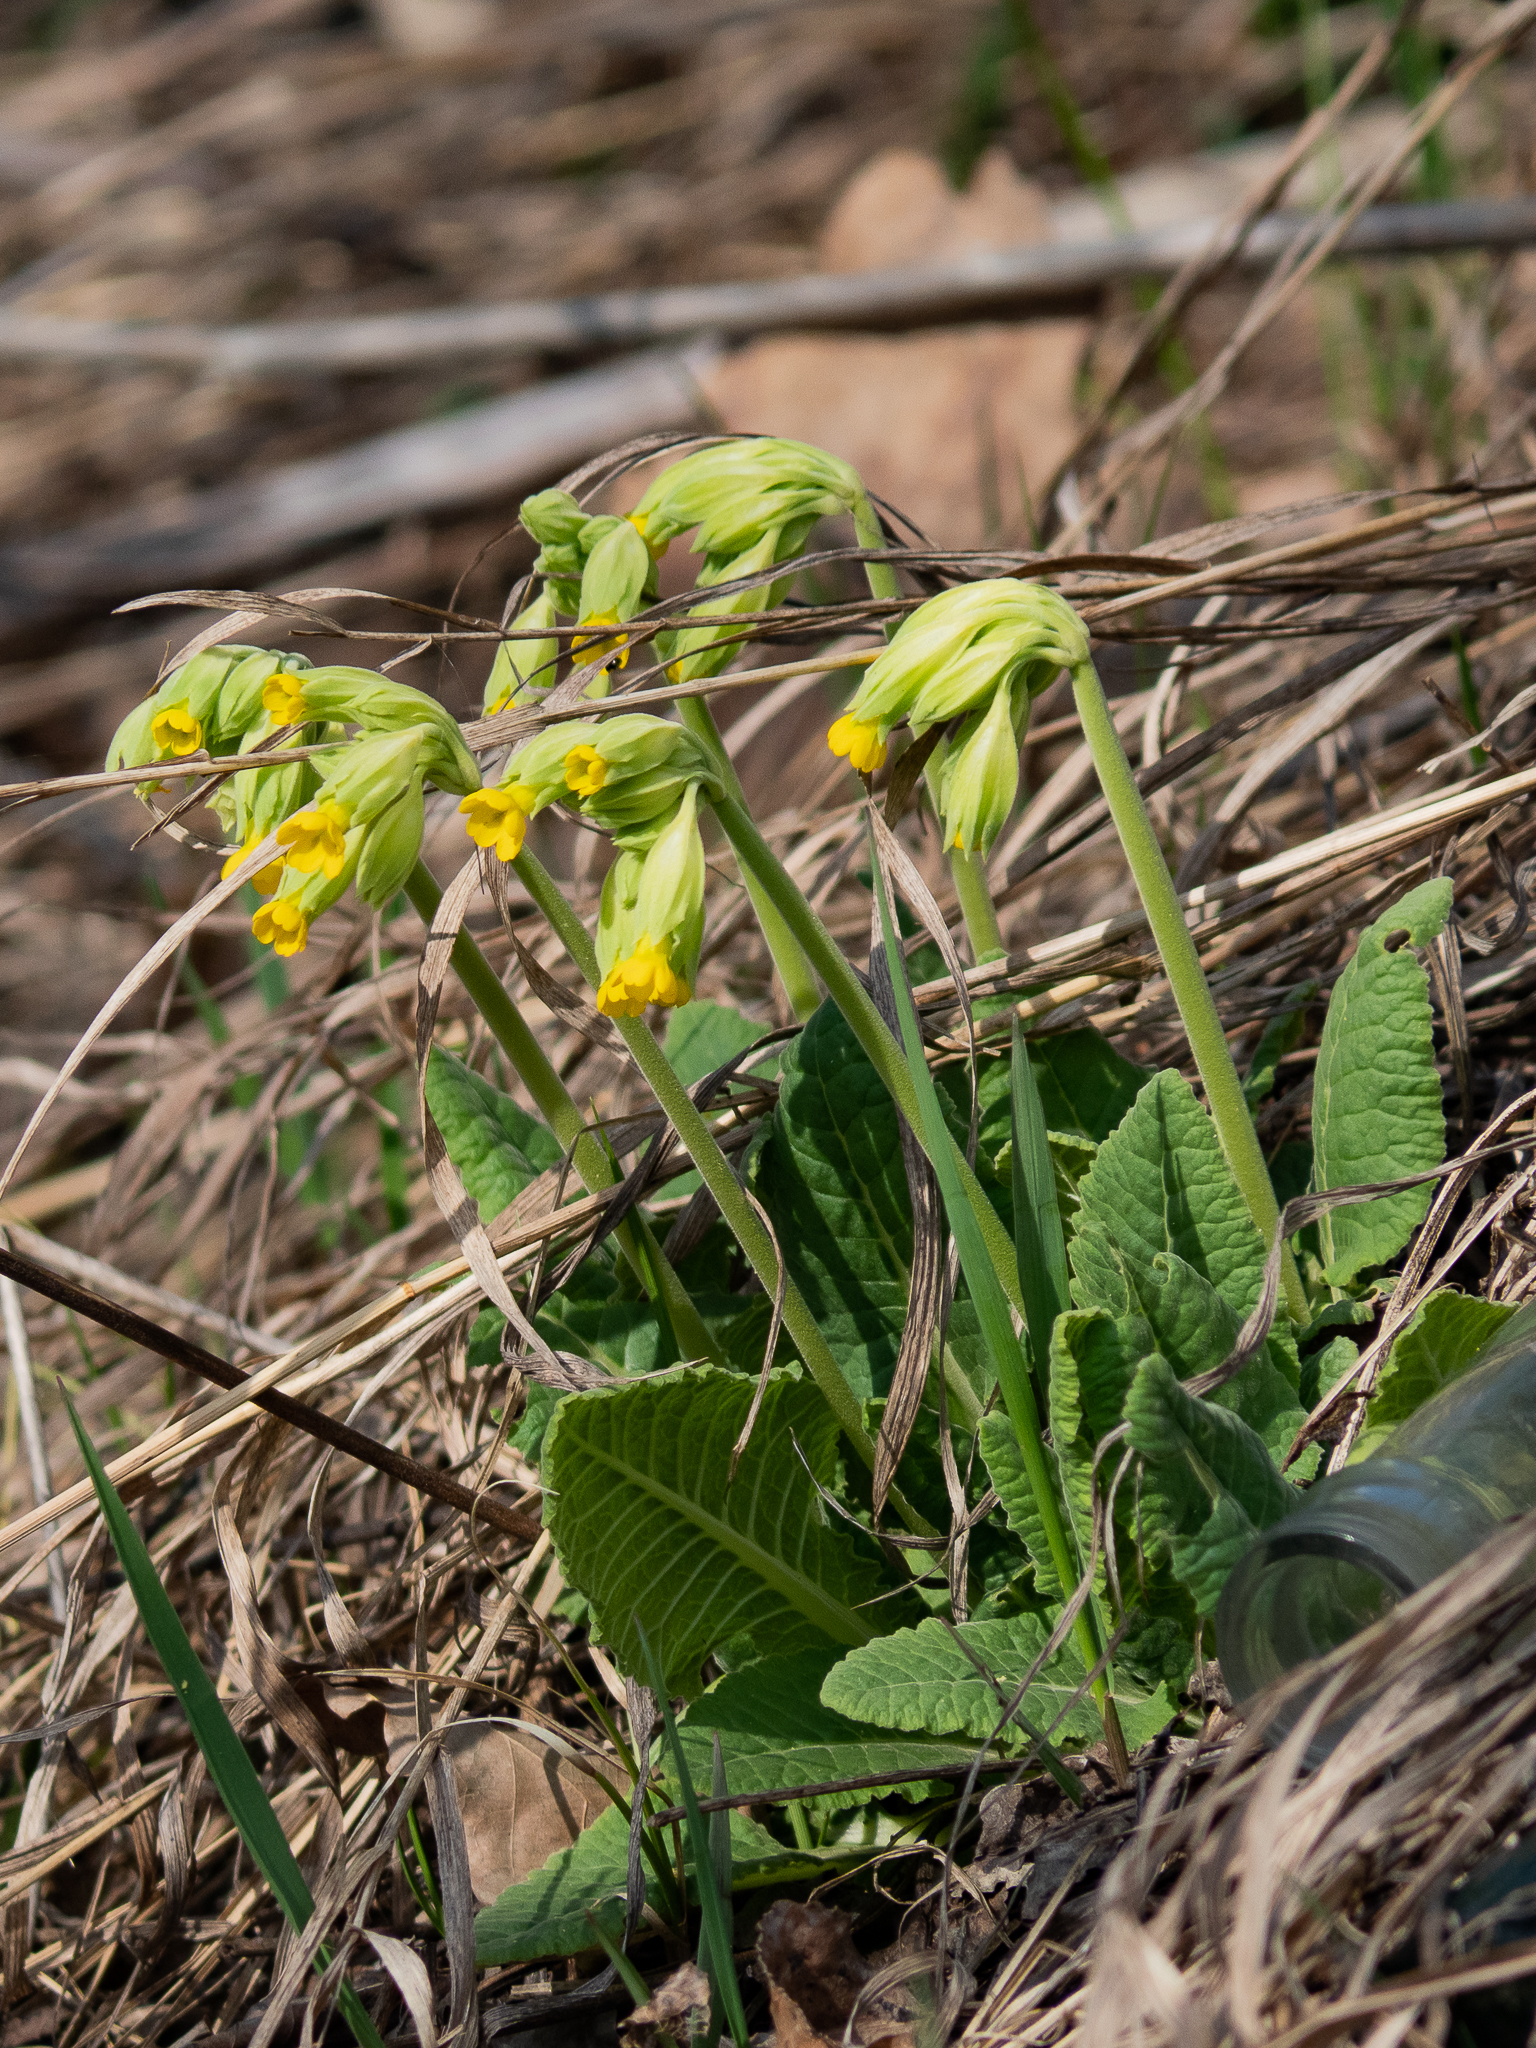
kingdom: Plantae
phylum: Tracheophyta
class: Magnoliopsida
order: Ericales
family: Primulaceae
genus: Primula
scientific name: Primula veris
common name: Cowslip
